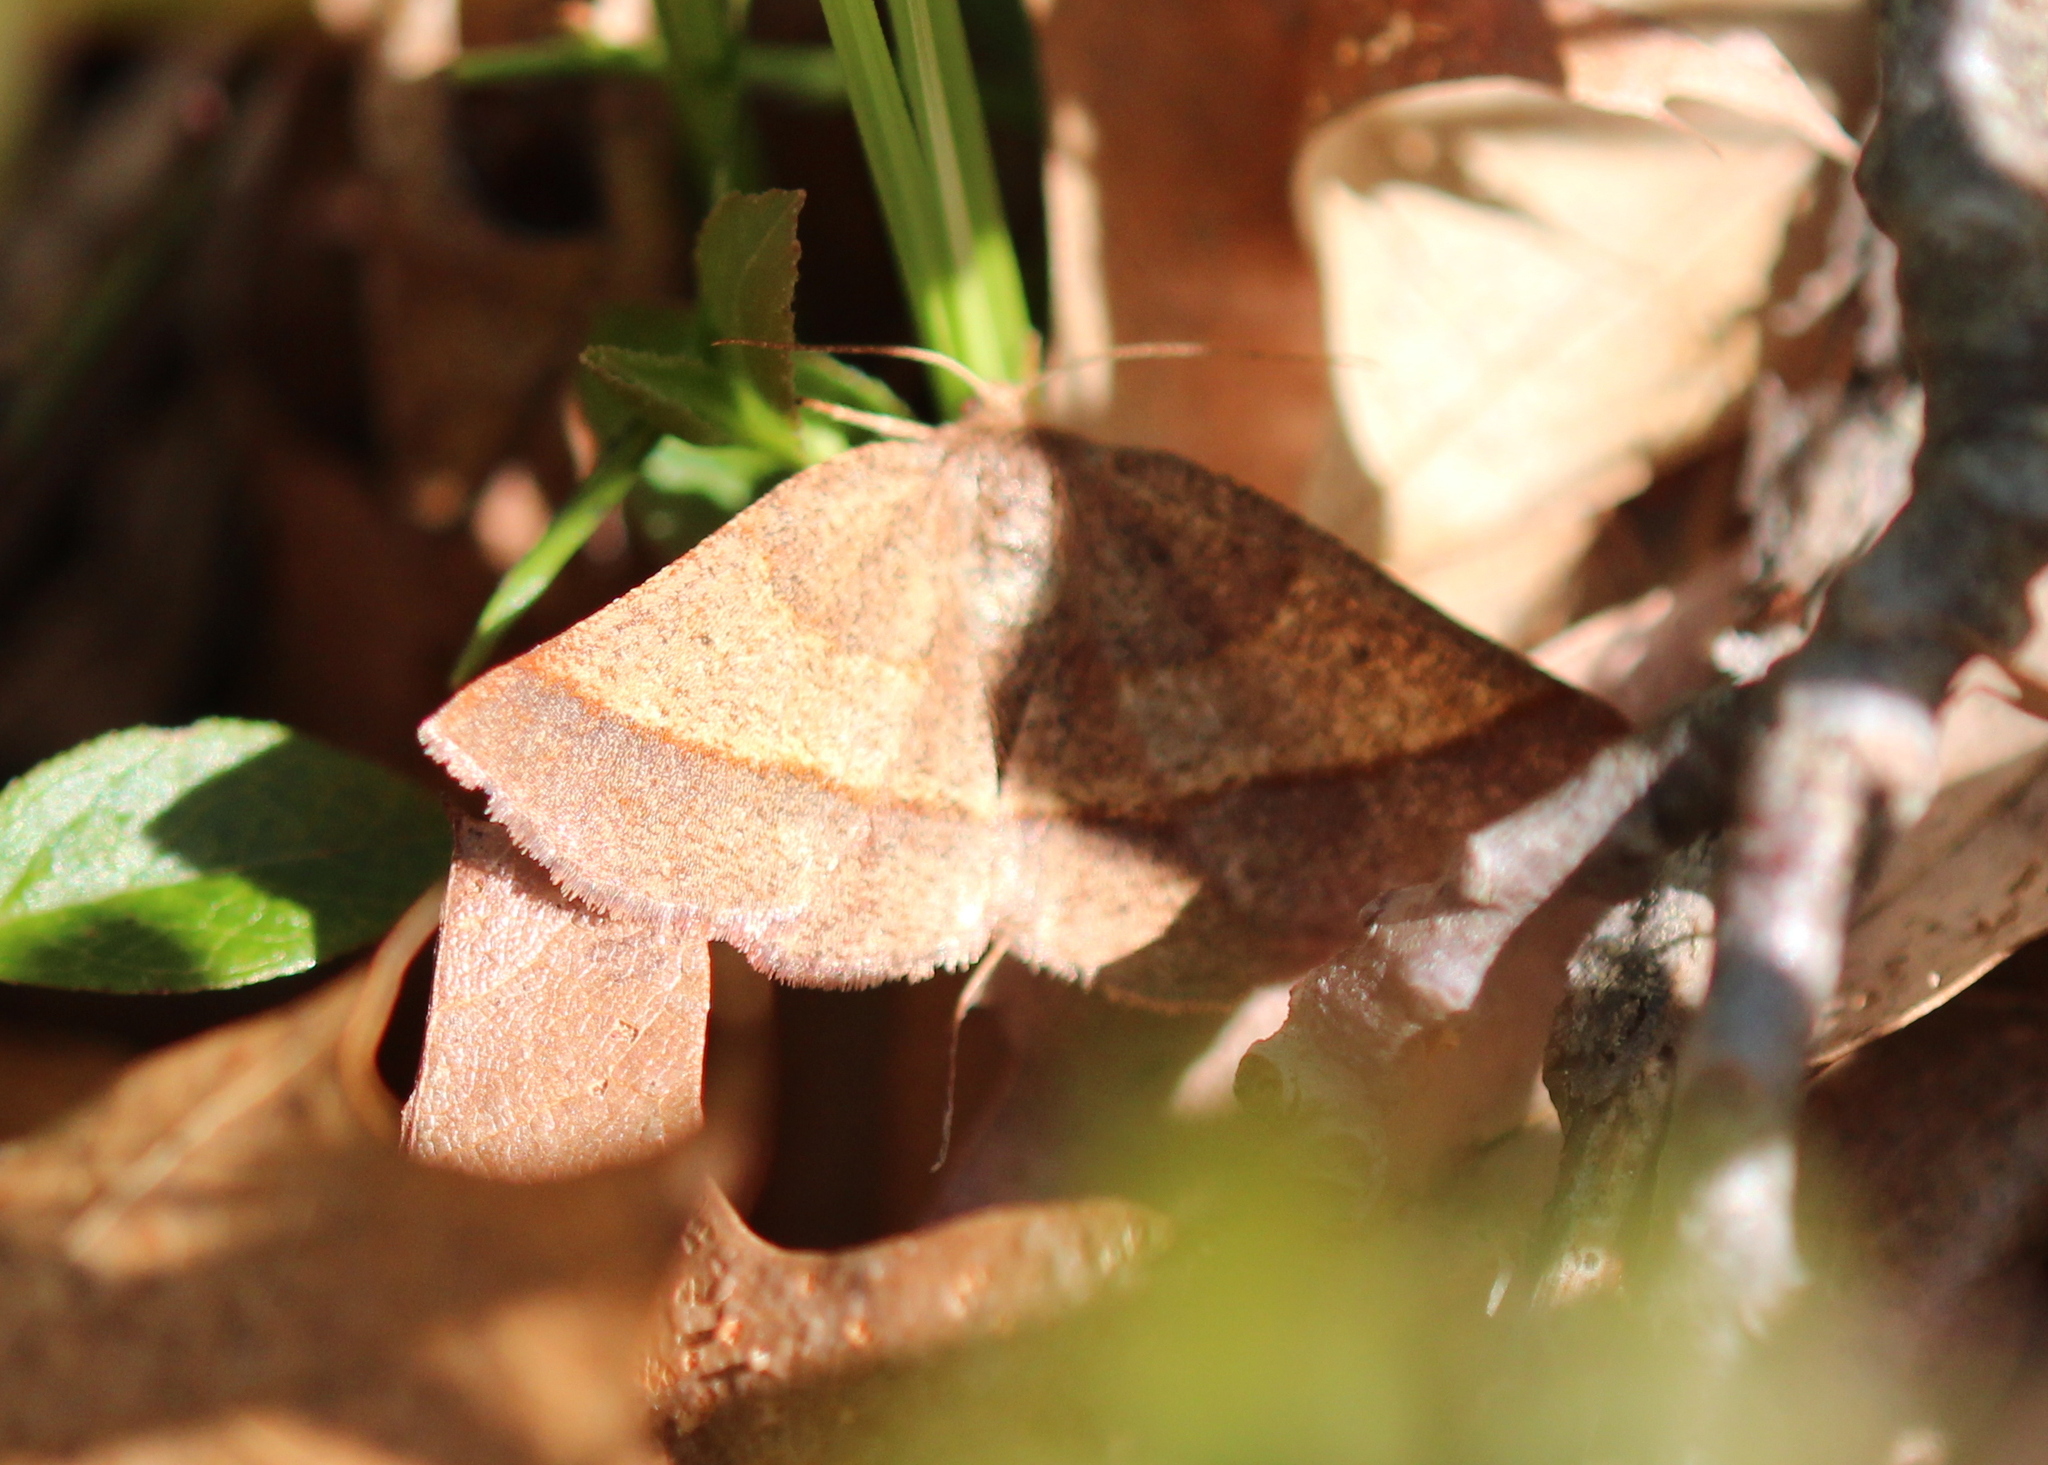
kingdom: Animalia
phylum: Arthropoda
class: Insecta
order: Lepidoptera
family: Geometridae
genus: Metarranthis
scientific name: Metarranthis obfirmaria
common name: Yellow-washed metarranthis
